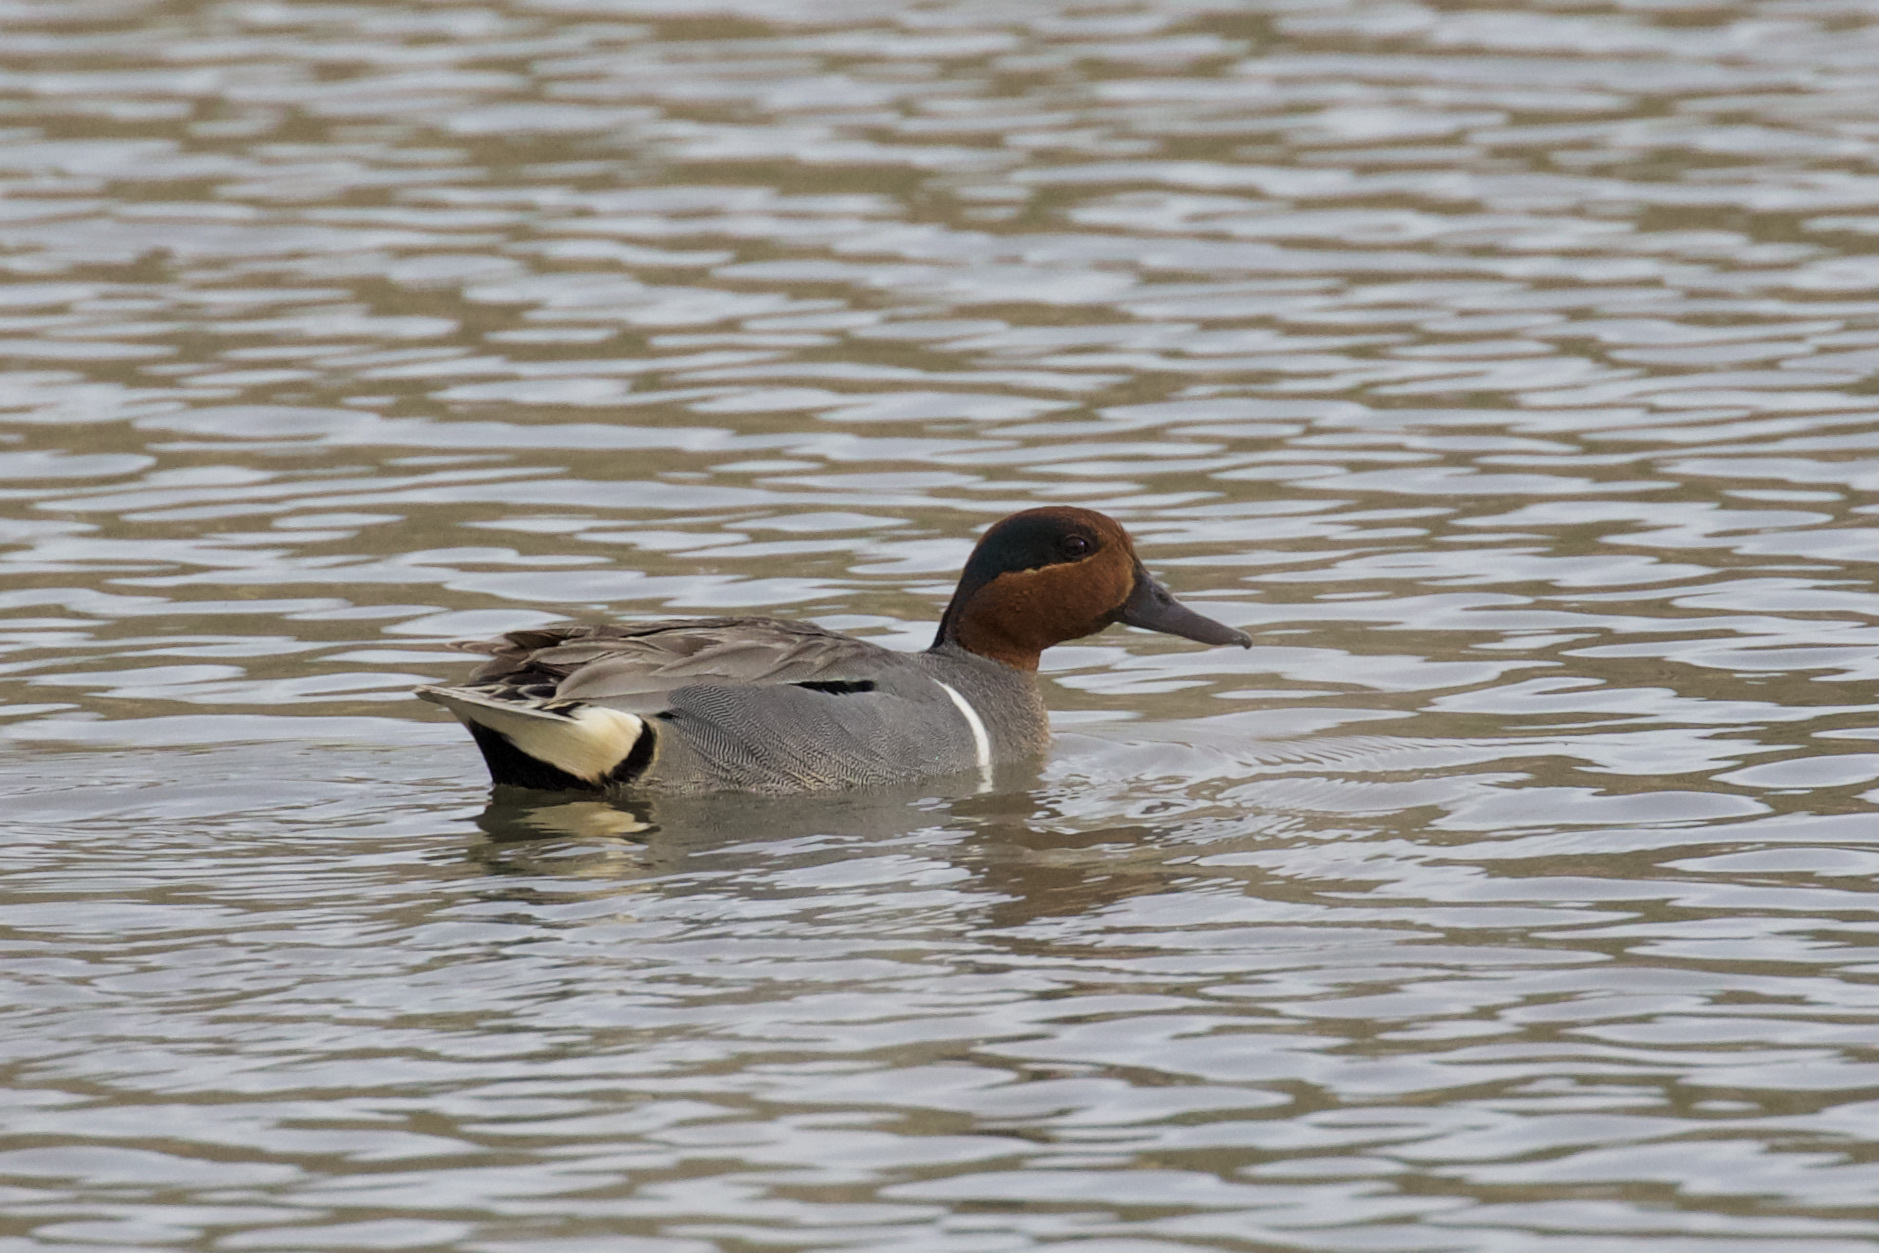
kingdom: Animalia
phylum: Chordata
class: Aves
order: Anseriformes
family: Anatidae
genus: Anas
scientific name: Anas crecca
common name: Eurasian teal
